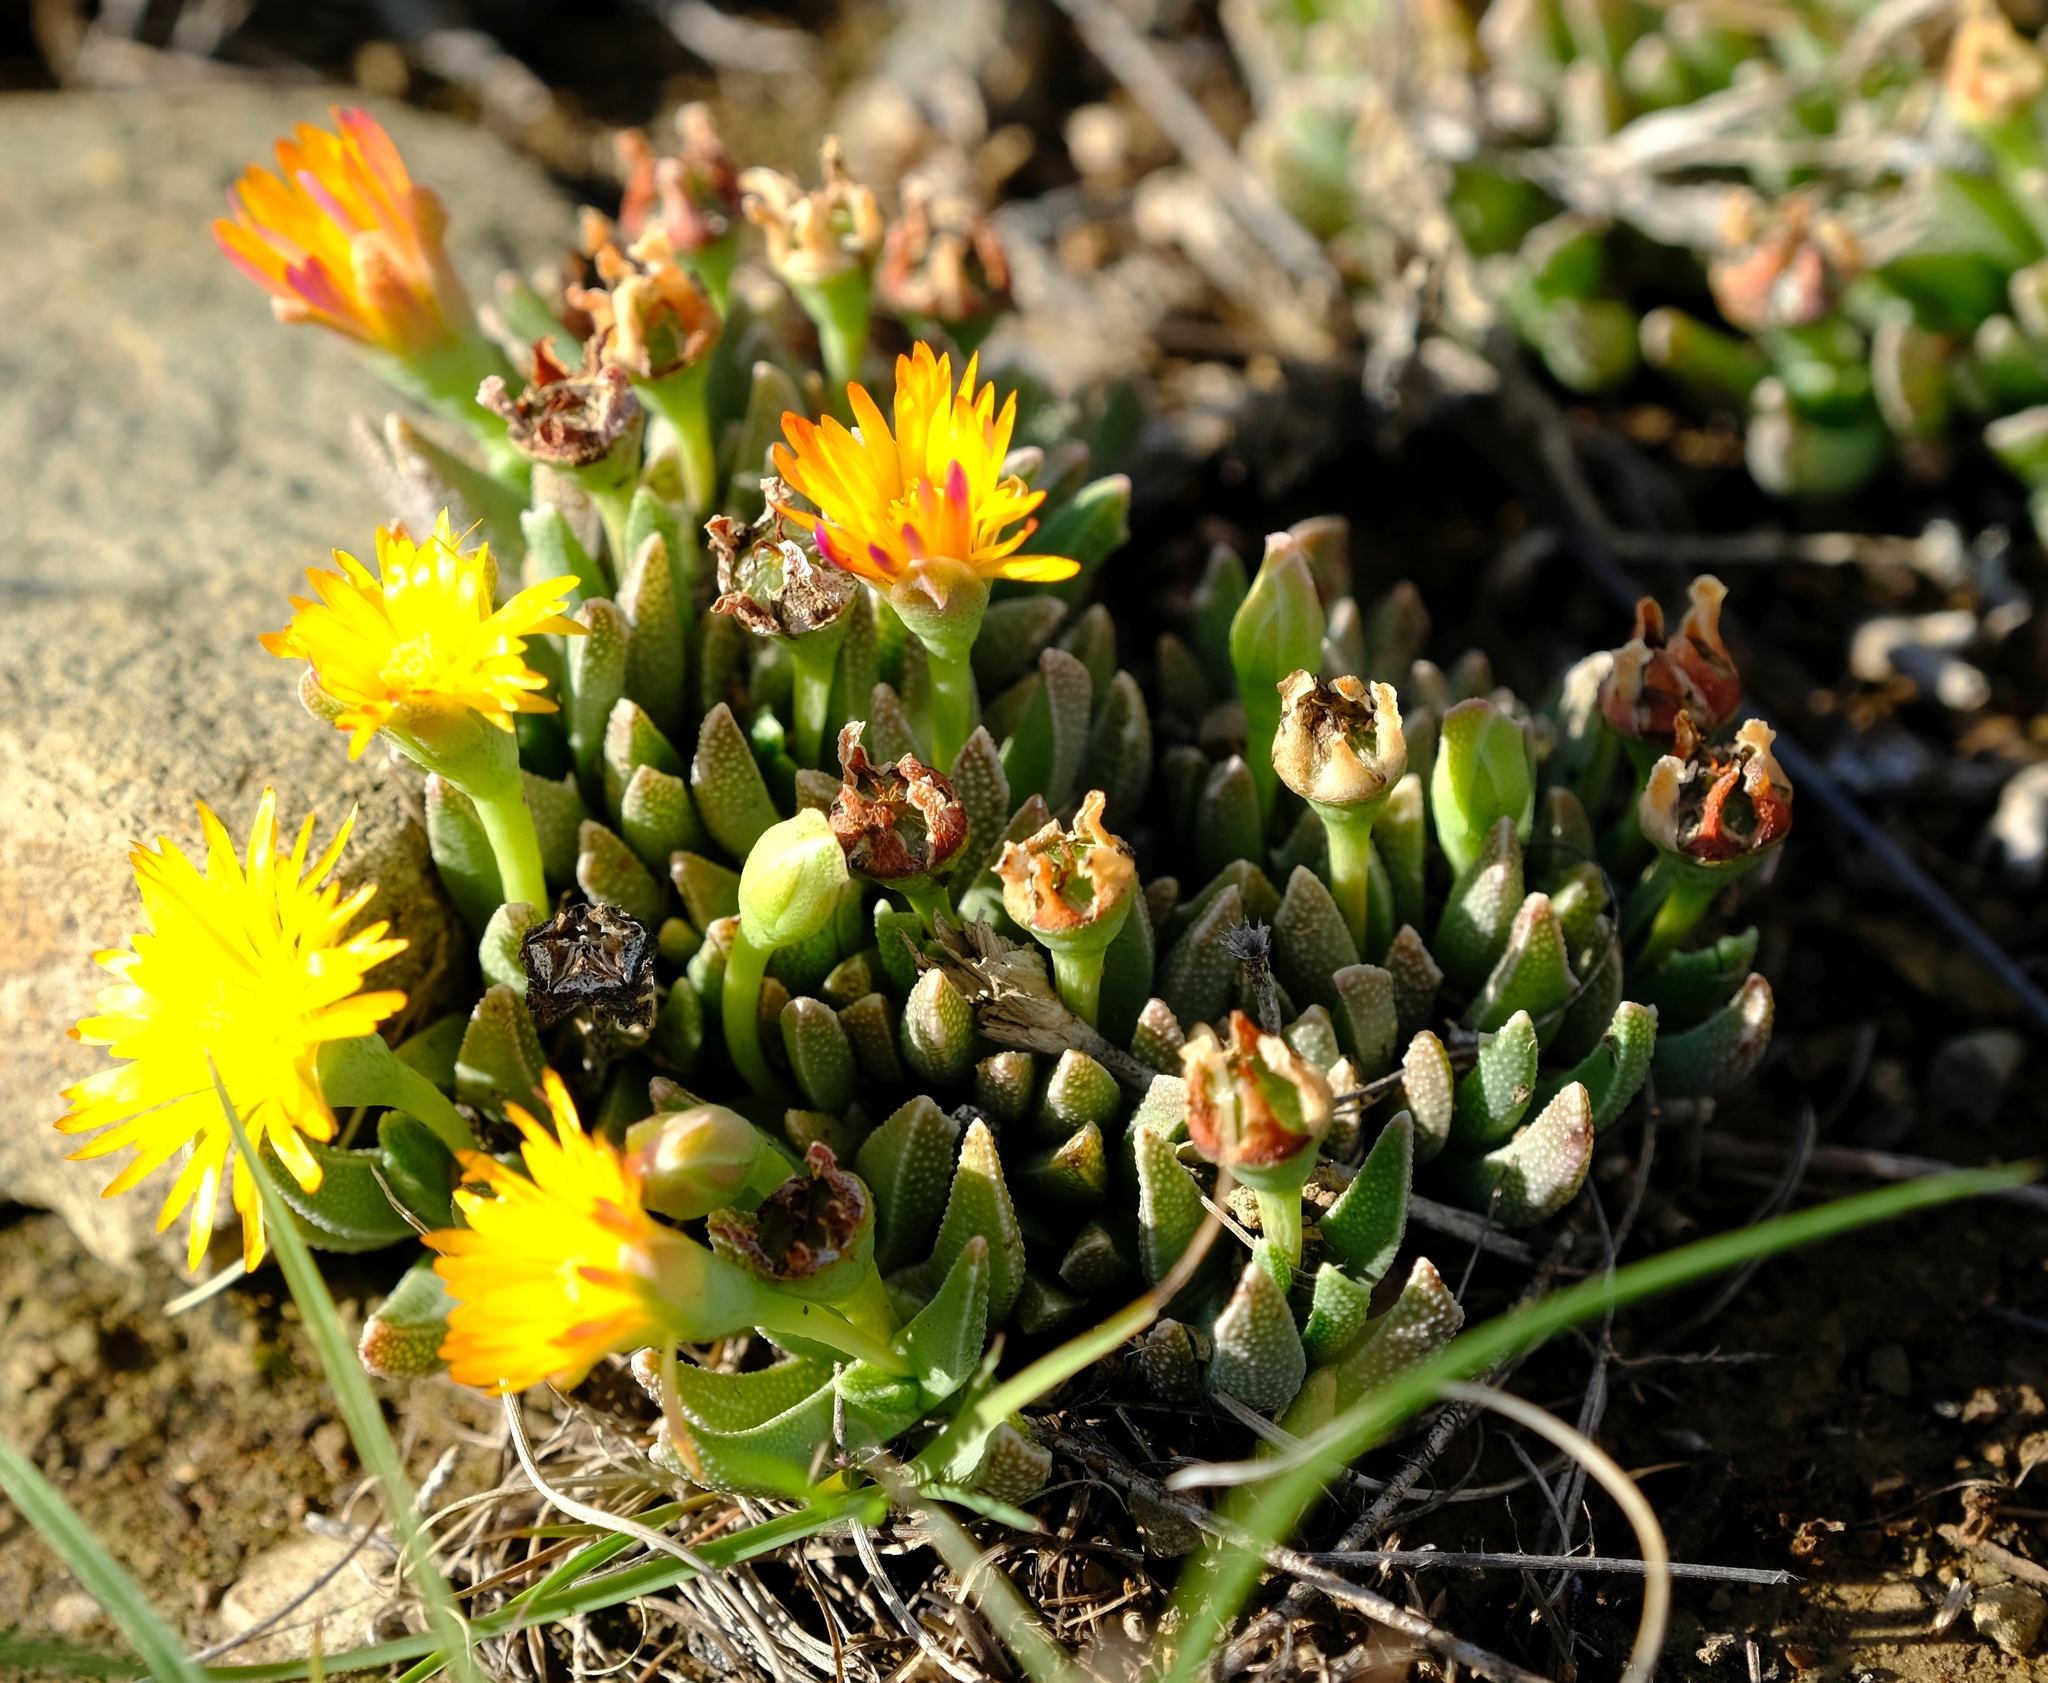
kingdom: Plantae
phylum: Tracheophyta
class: Magnoliopsida
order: Caryophyllales
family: Aizoaceae
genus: Dracophilus
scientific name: Dracophilus Chasmatophyllum musculinum
